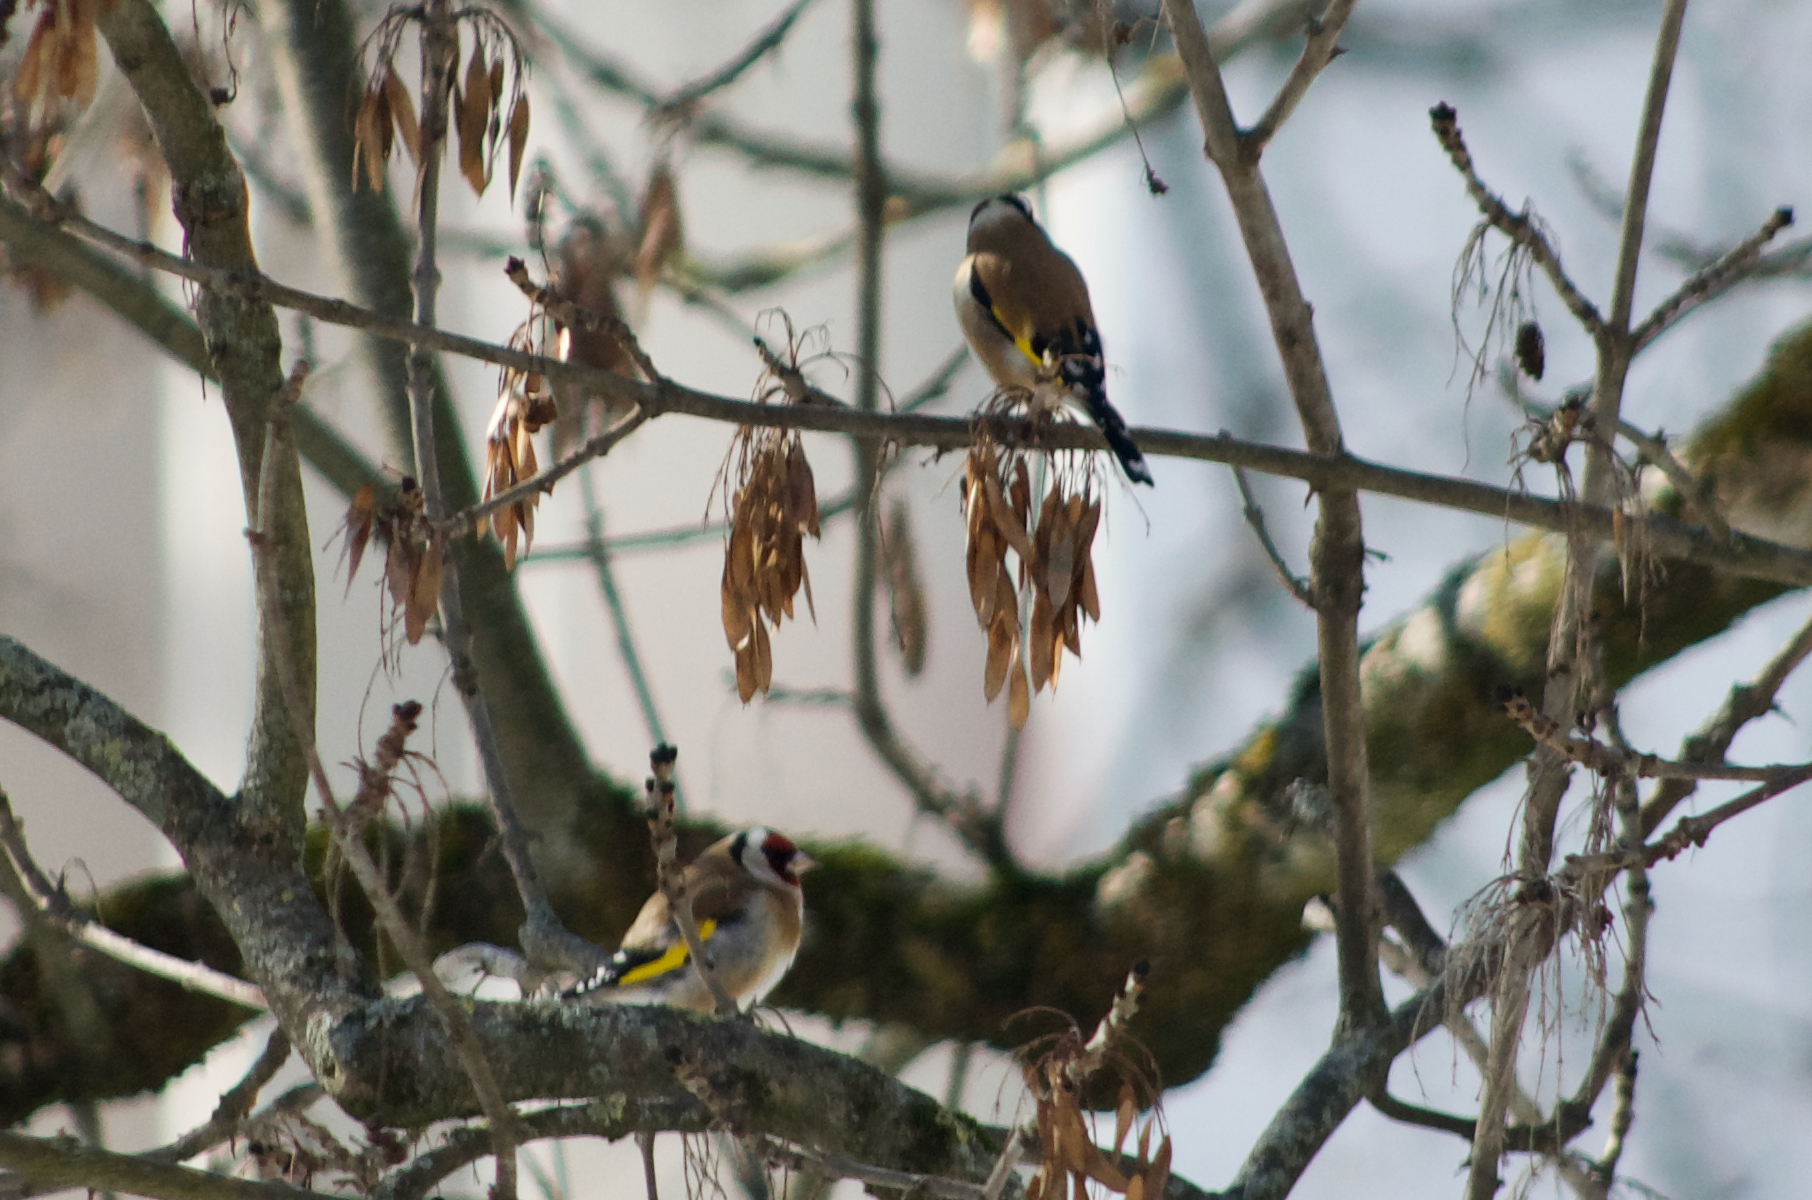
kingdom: Animalia
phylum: Chordata
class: Aves
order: Passeriformes
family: Fringillidae
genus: Carduelis
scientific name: Carduelis carduelis
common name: European goldfinch
